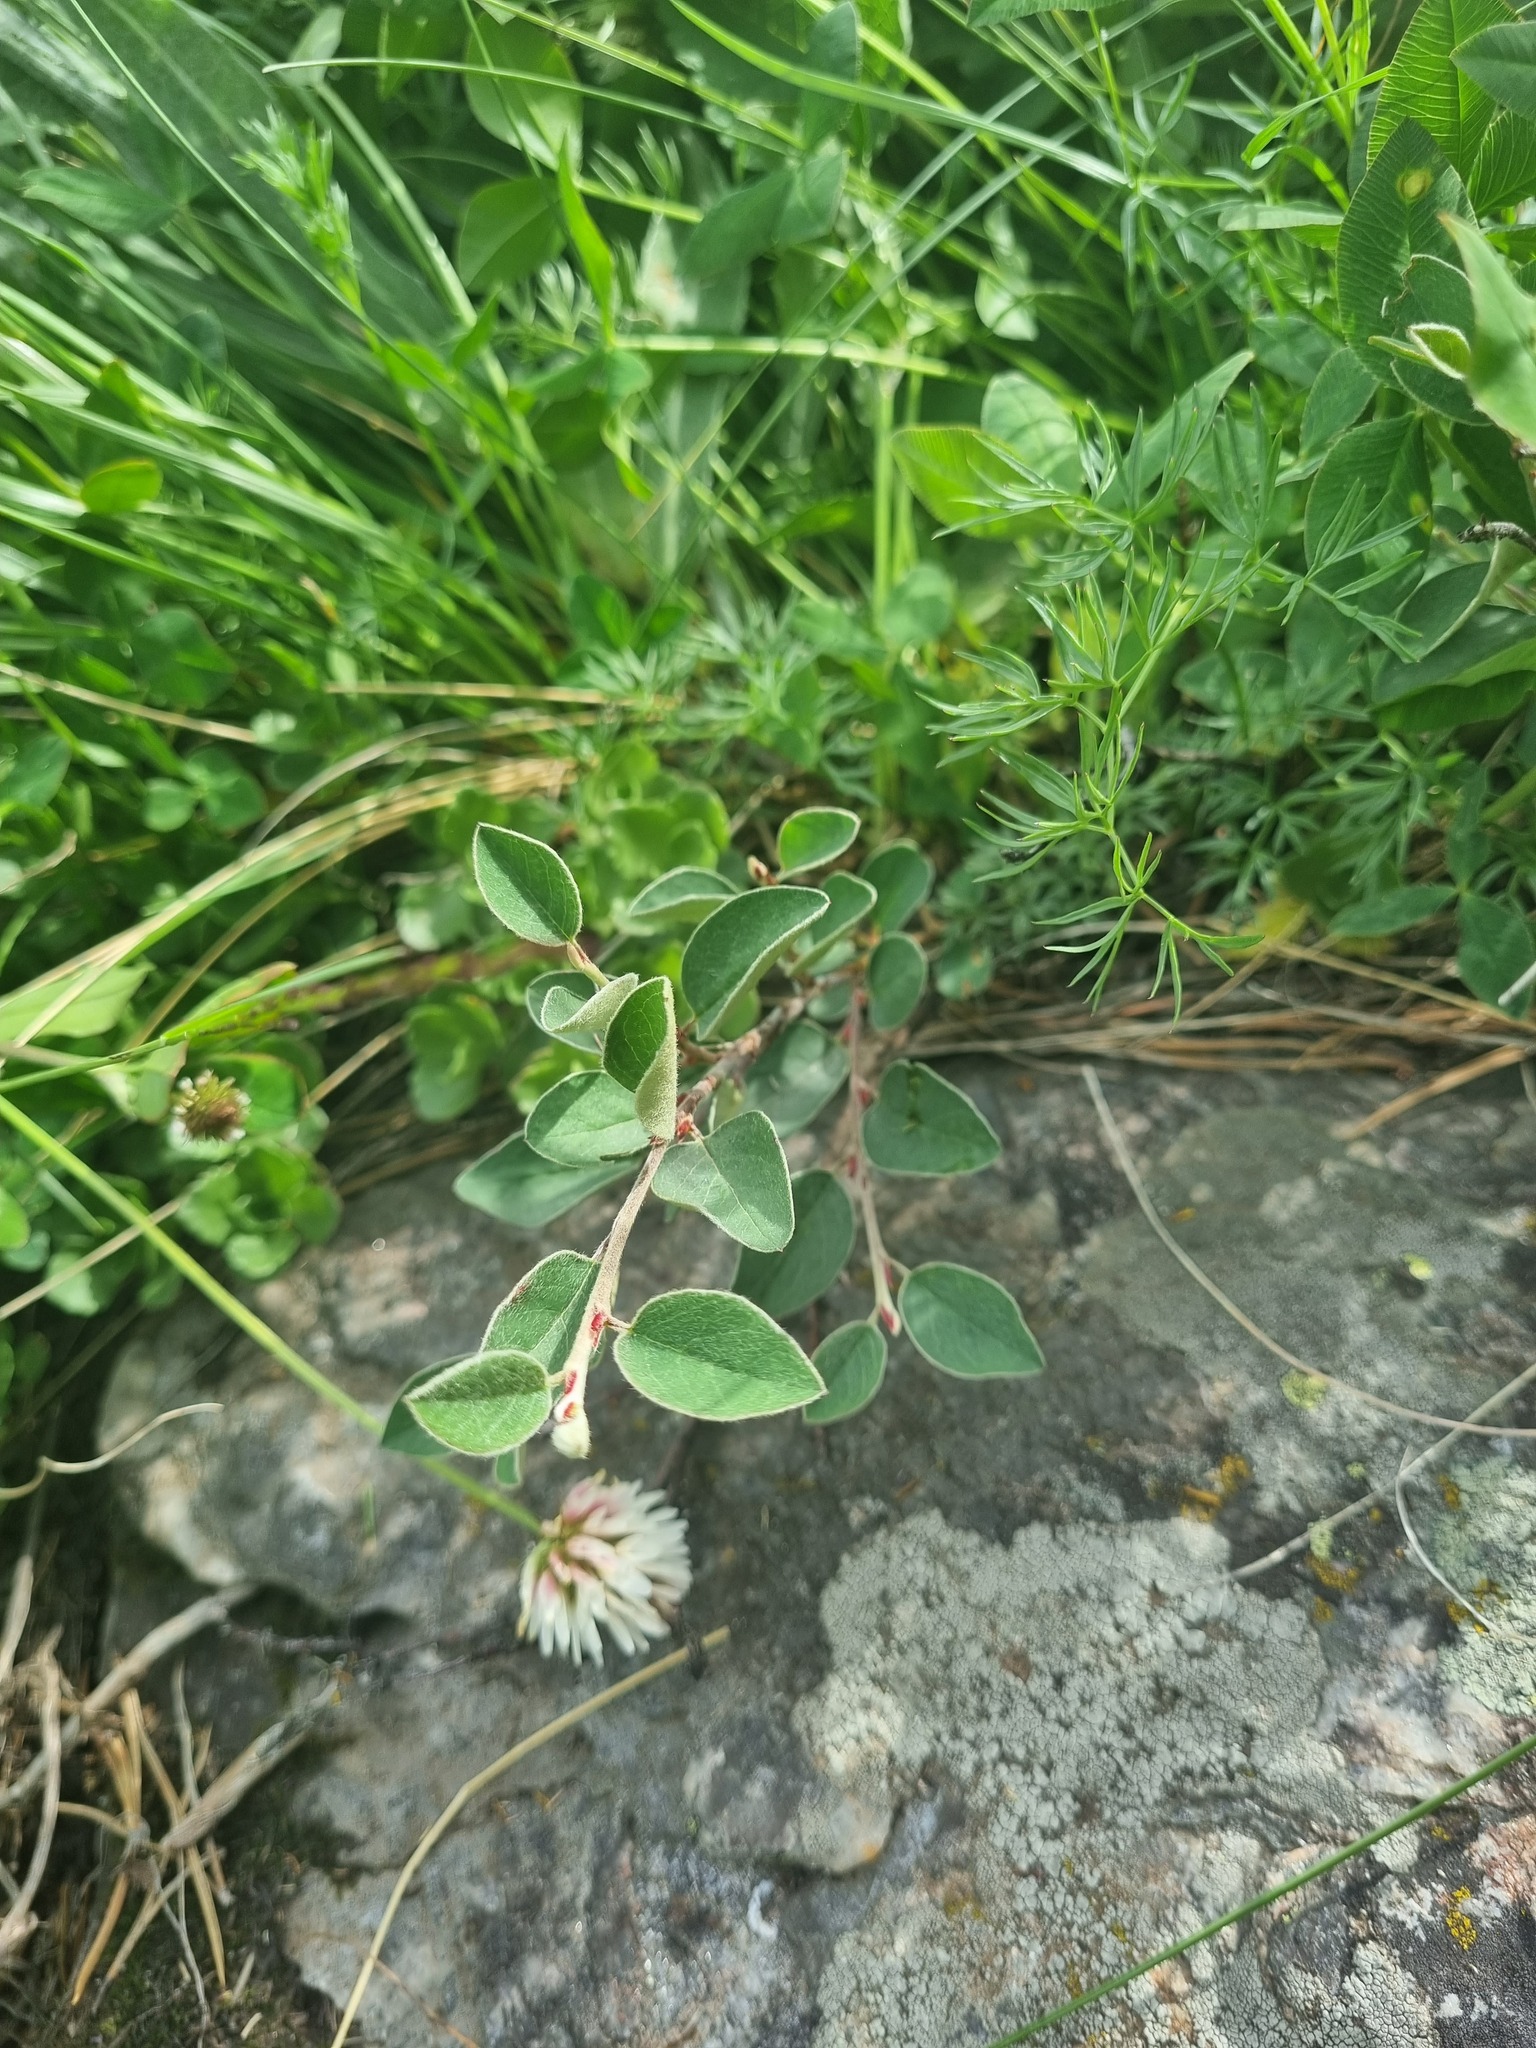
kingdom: Plantae
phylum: Tracheophyta
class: Magnoliopsida
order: Rosales
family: Rosaceae
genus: Cotoneaster
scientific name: Cotoneaster integerrimus
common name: Wild cotoneaster
